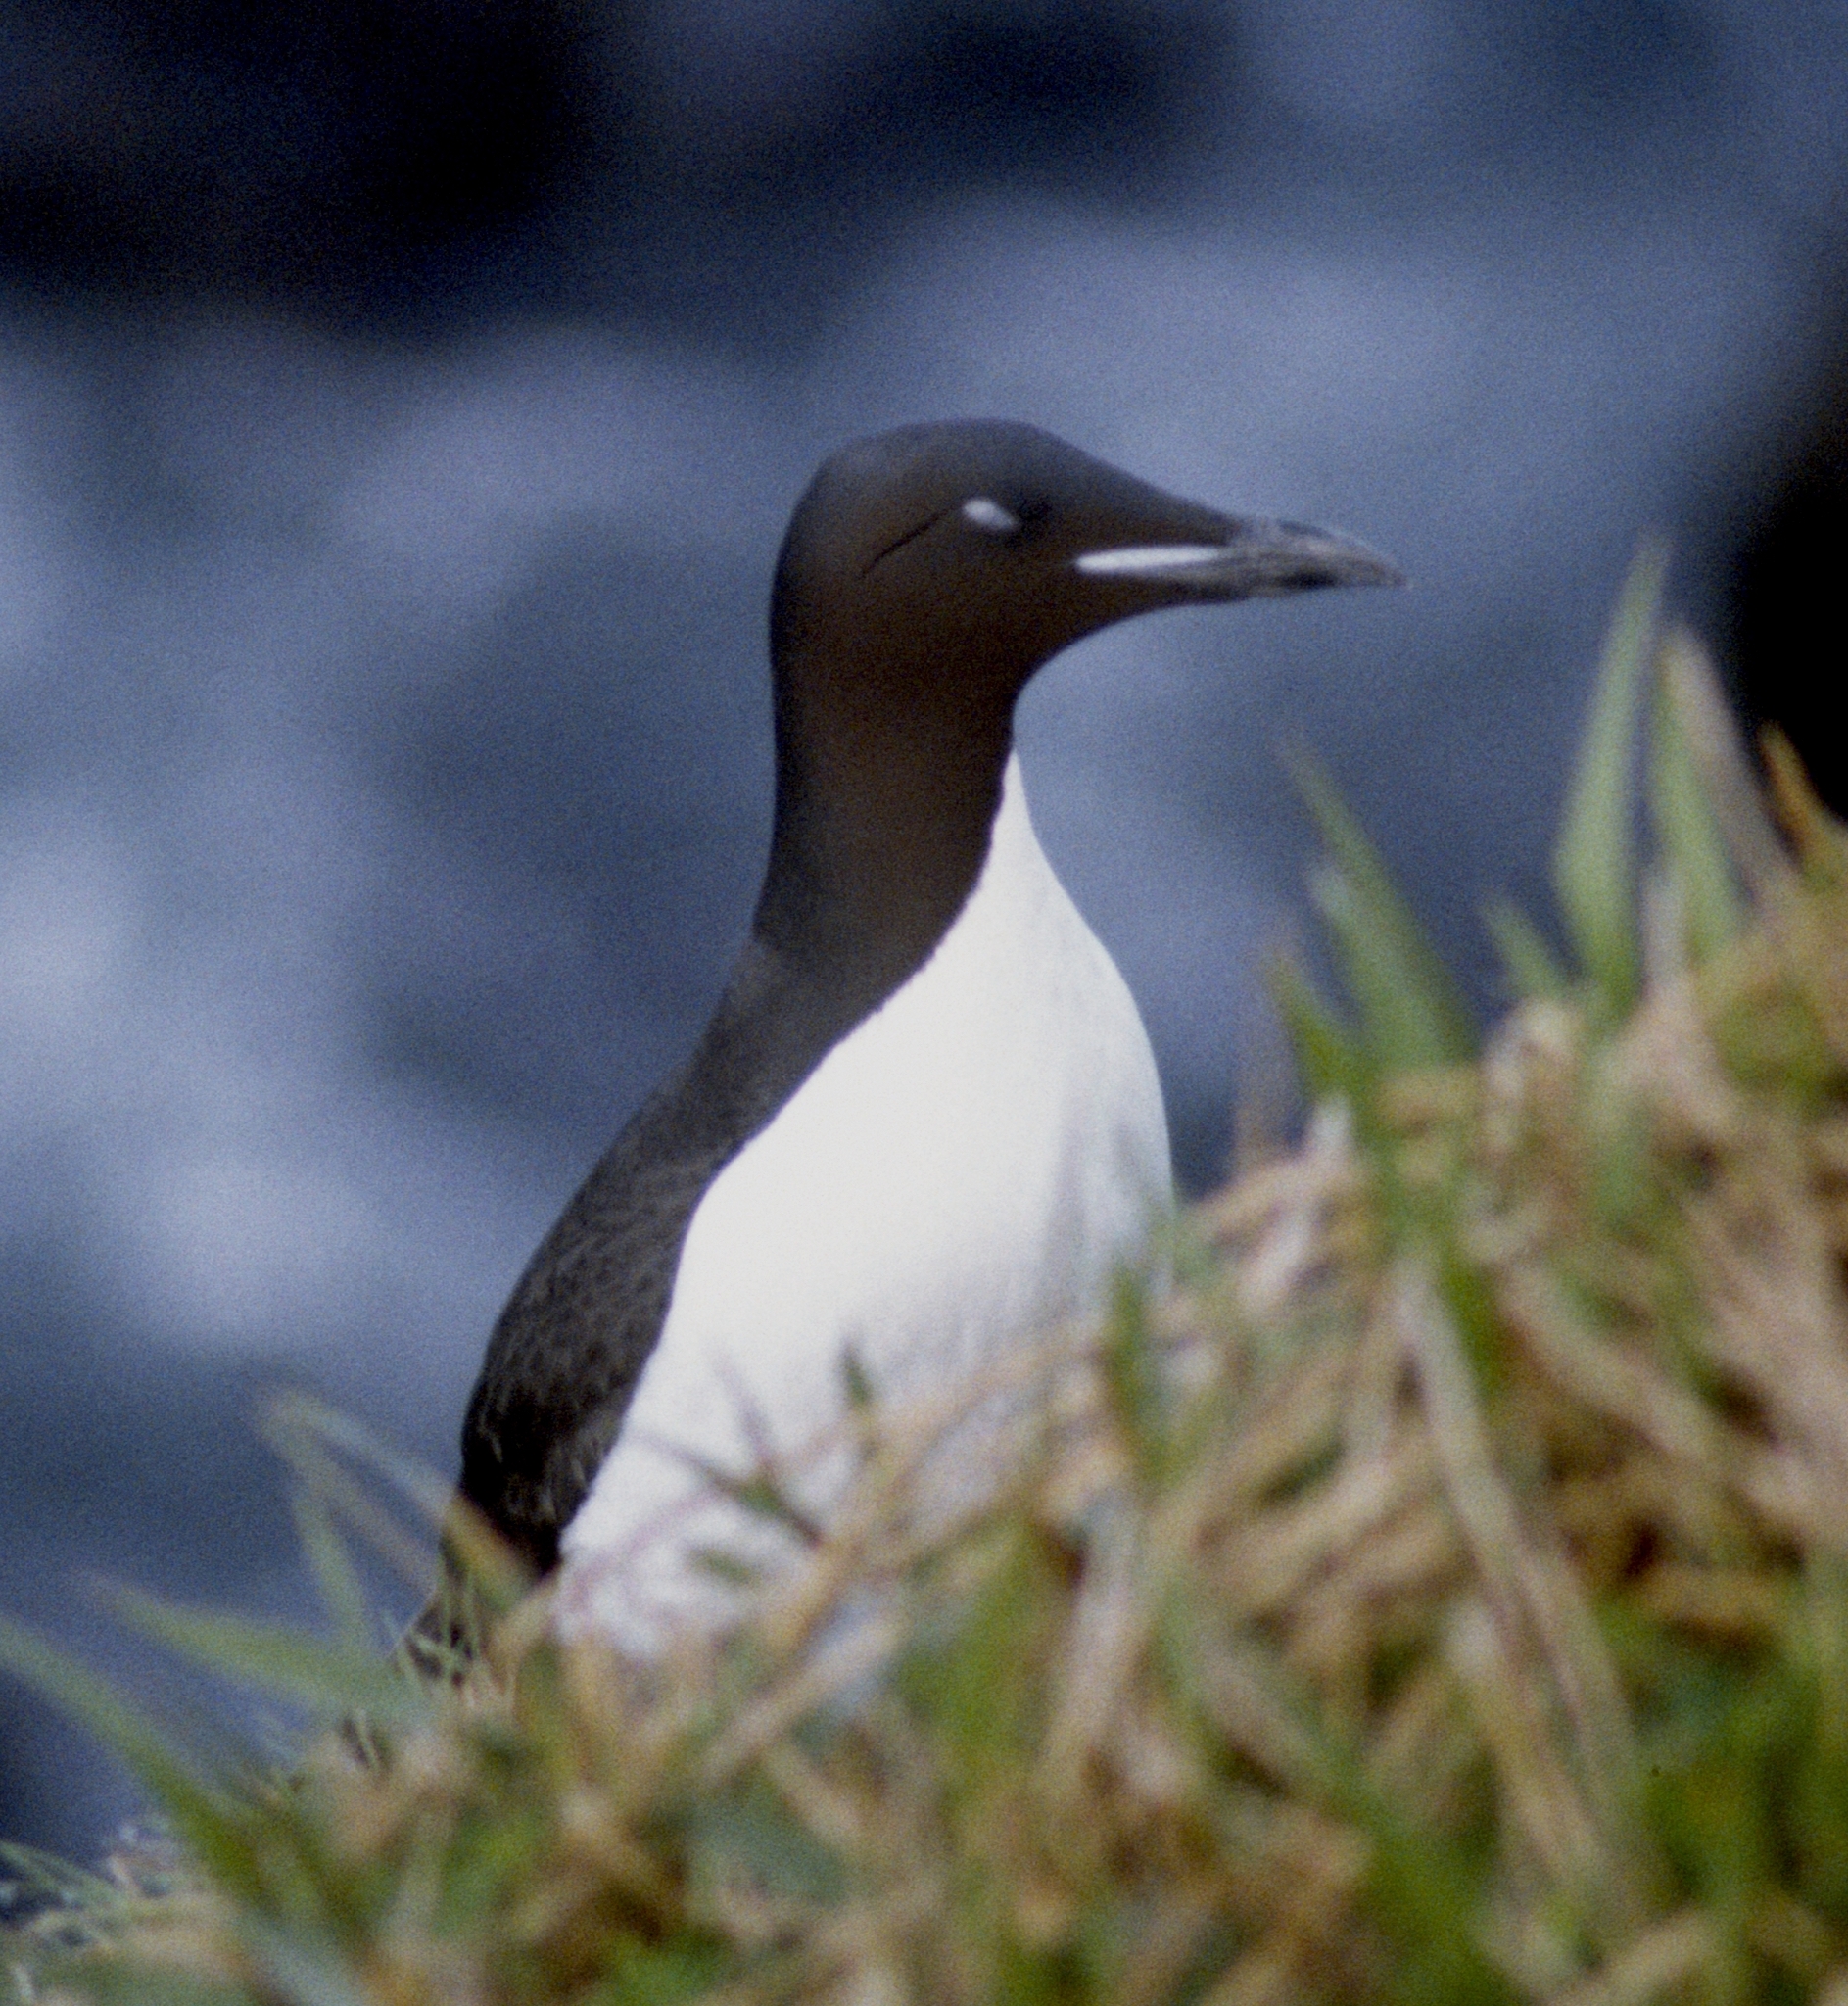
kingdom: Animalia
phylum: Chordata
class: Aves
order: Charadriiformes
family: Alcidae
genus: Uria
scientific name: Uria lomvia
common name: Thick-billed murre
